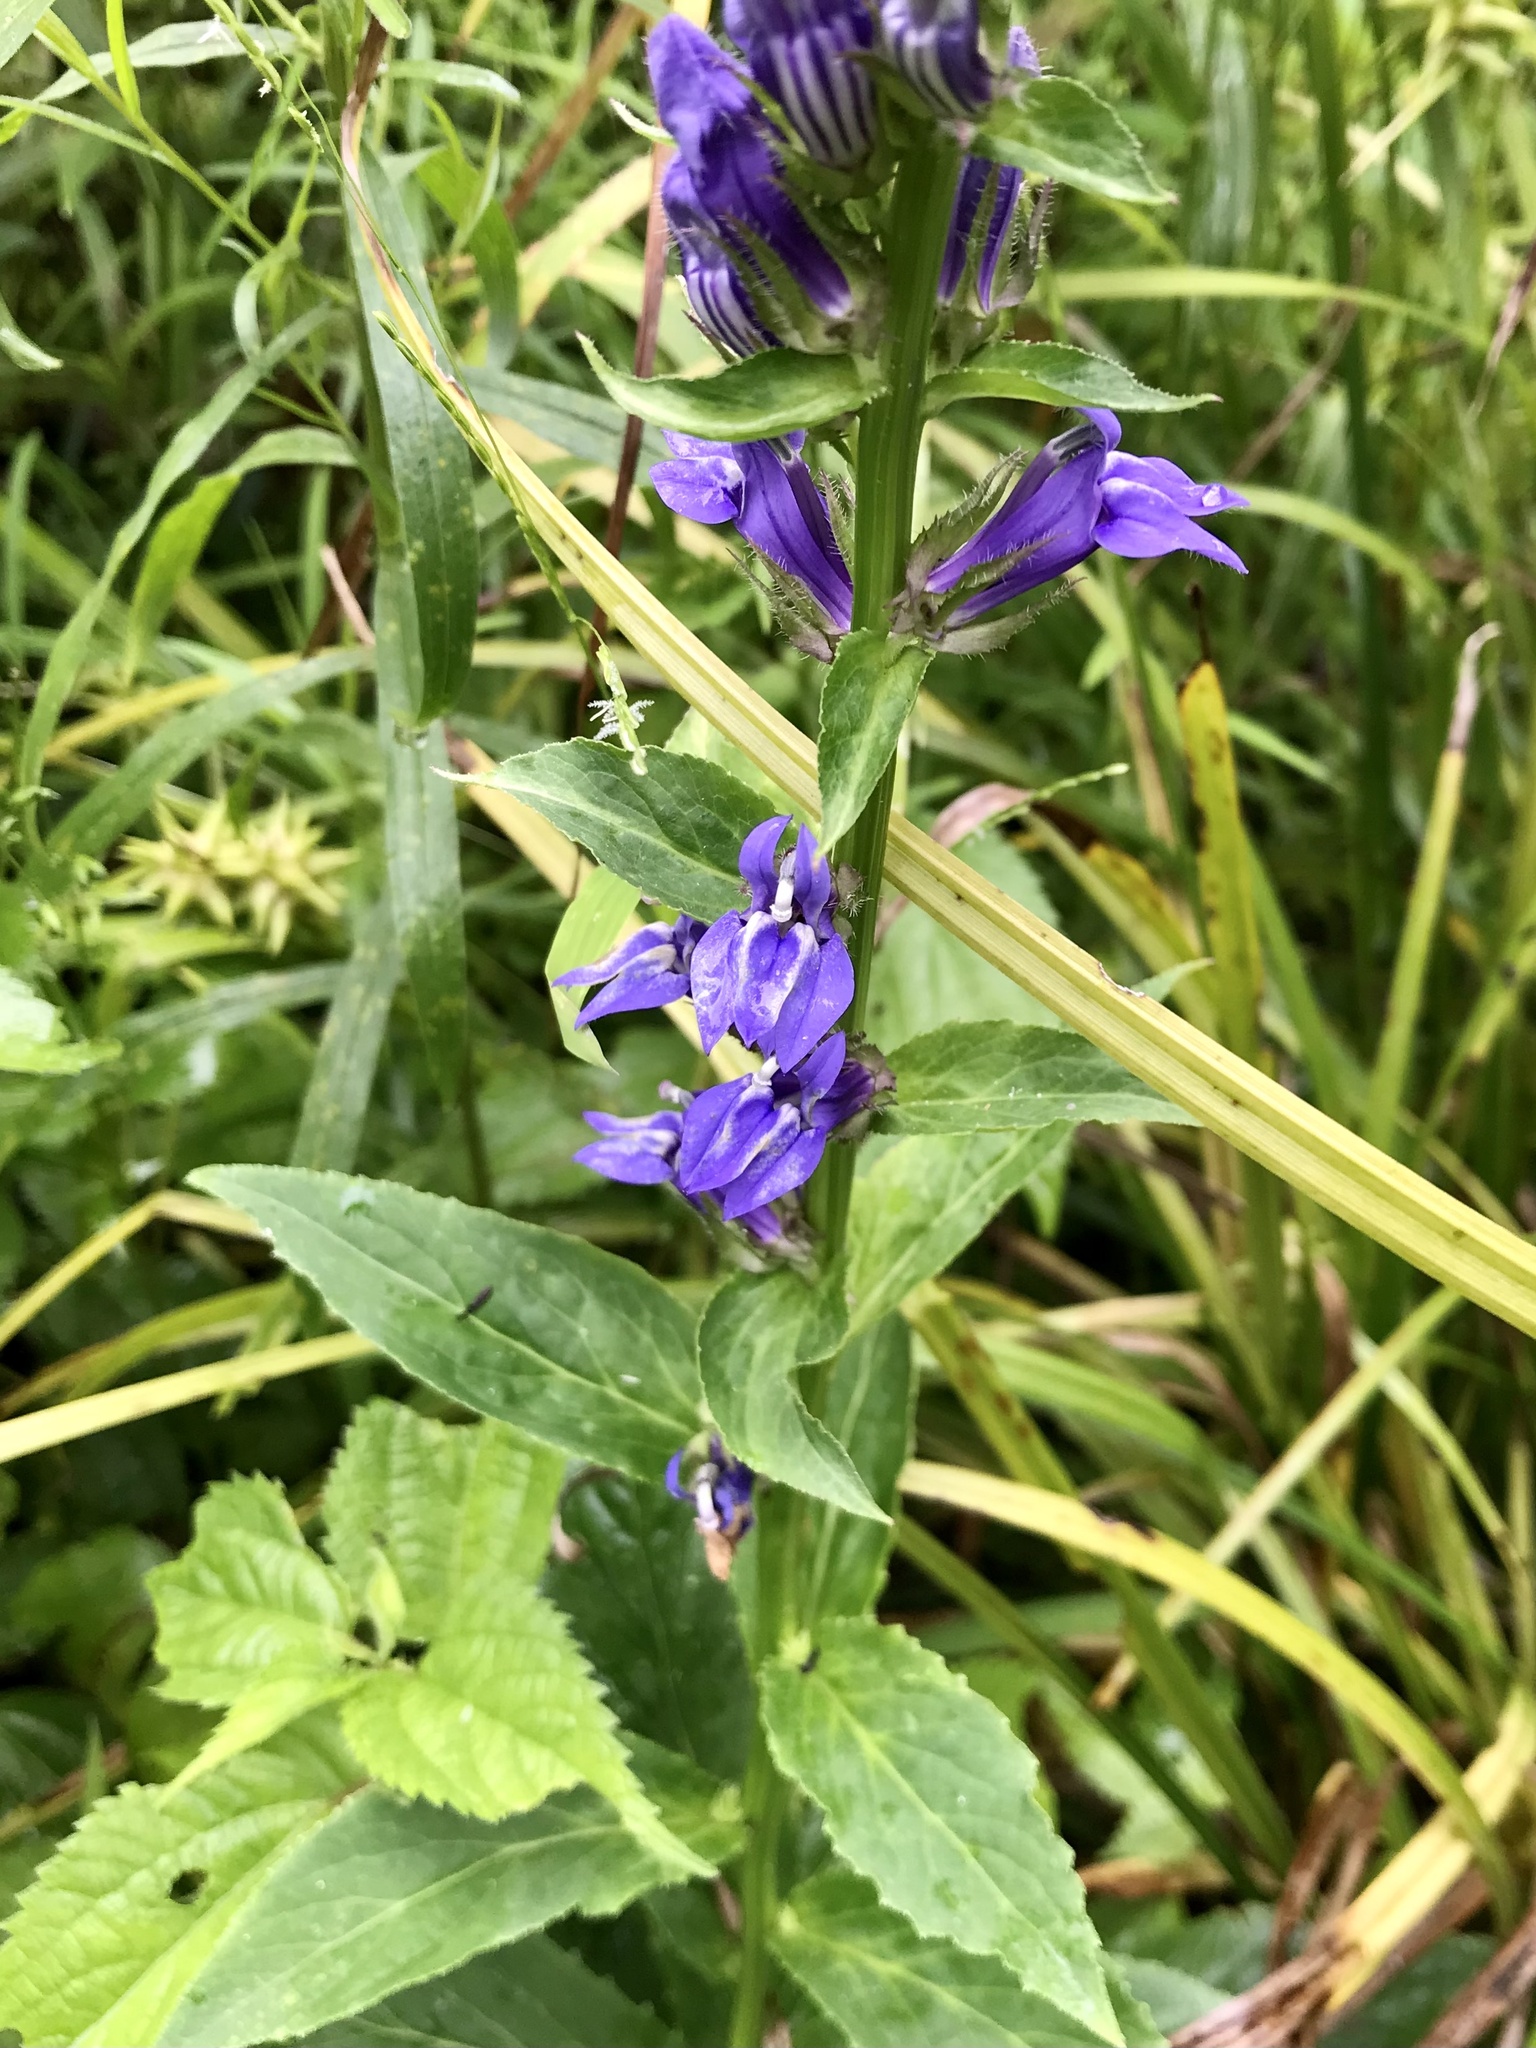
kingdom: Plantae
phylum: Tracheophyta
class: Magnoliopsida
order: Asterales
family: Campanulaceae
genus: Lobelia
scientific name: Lobelia siphilitica
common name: Great lobelia
